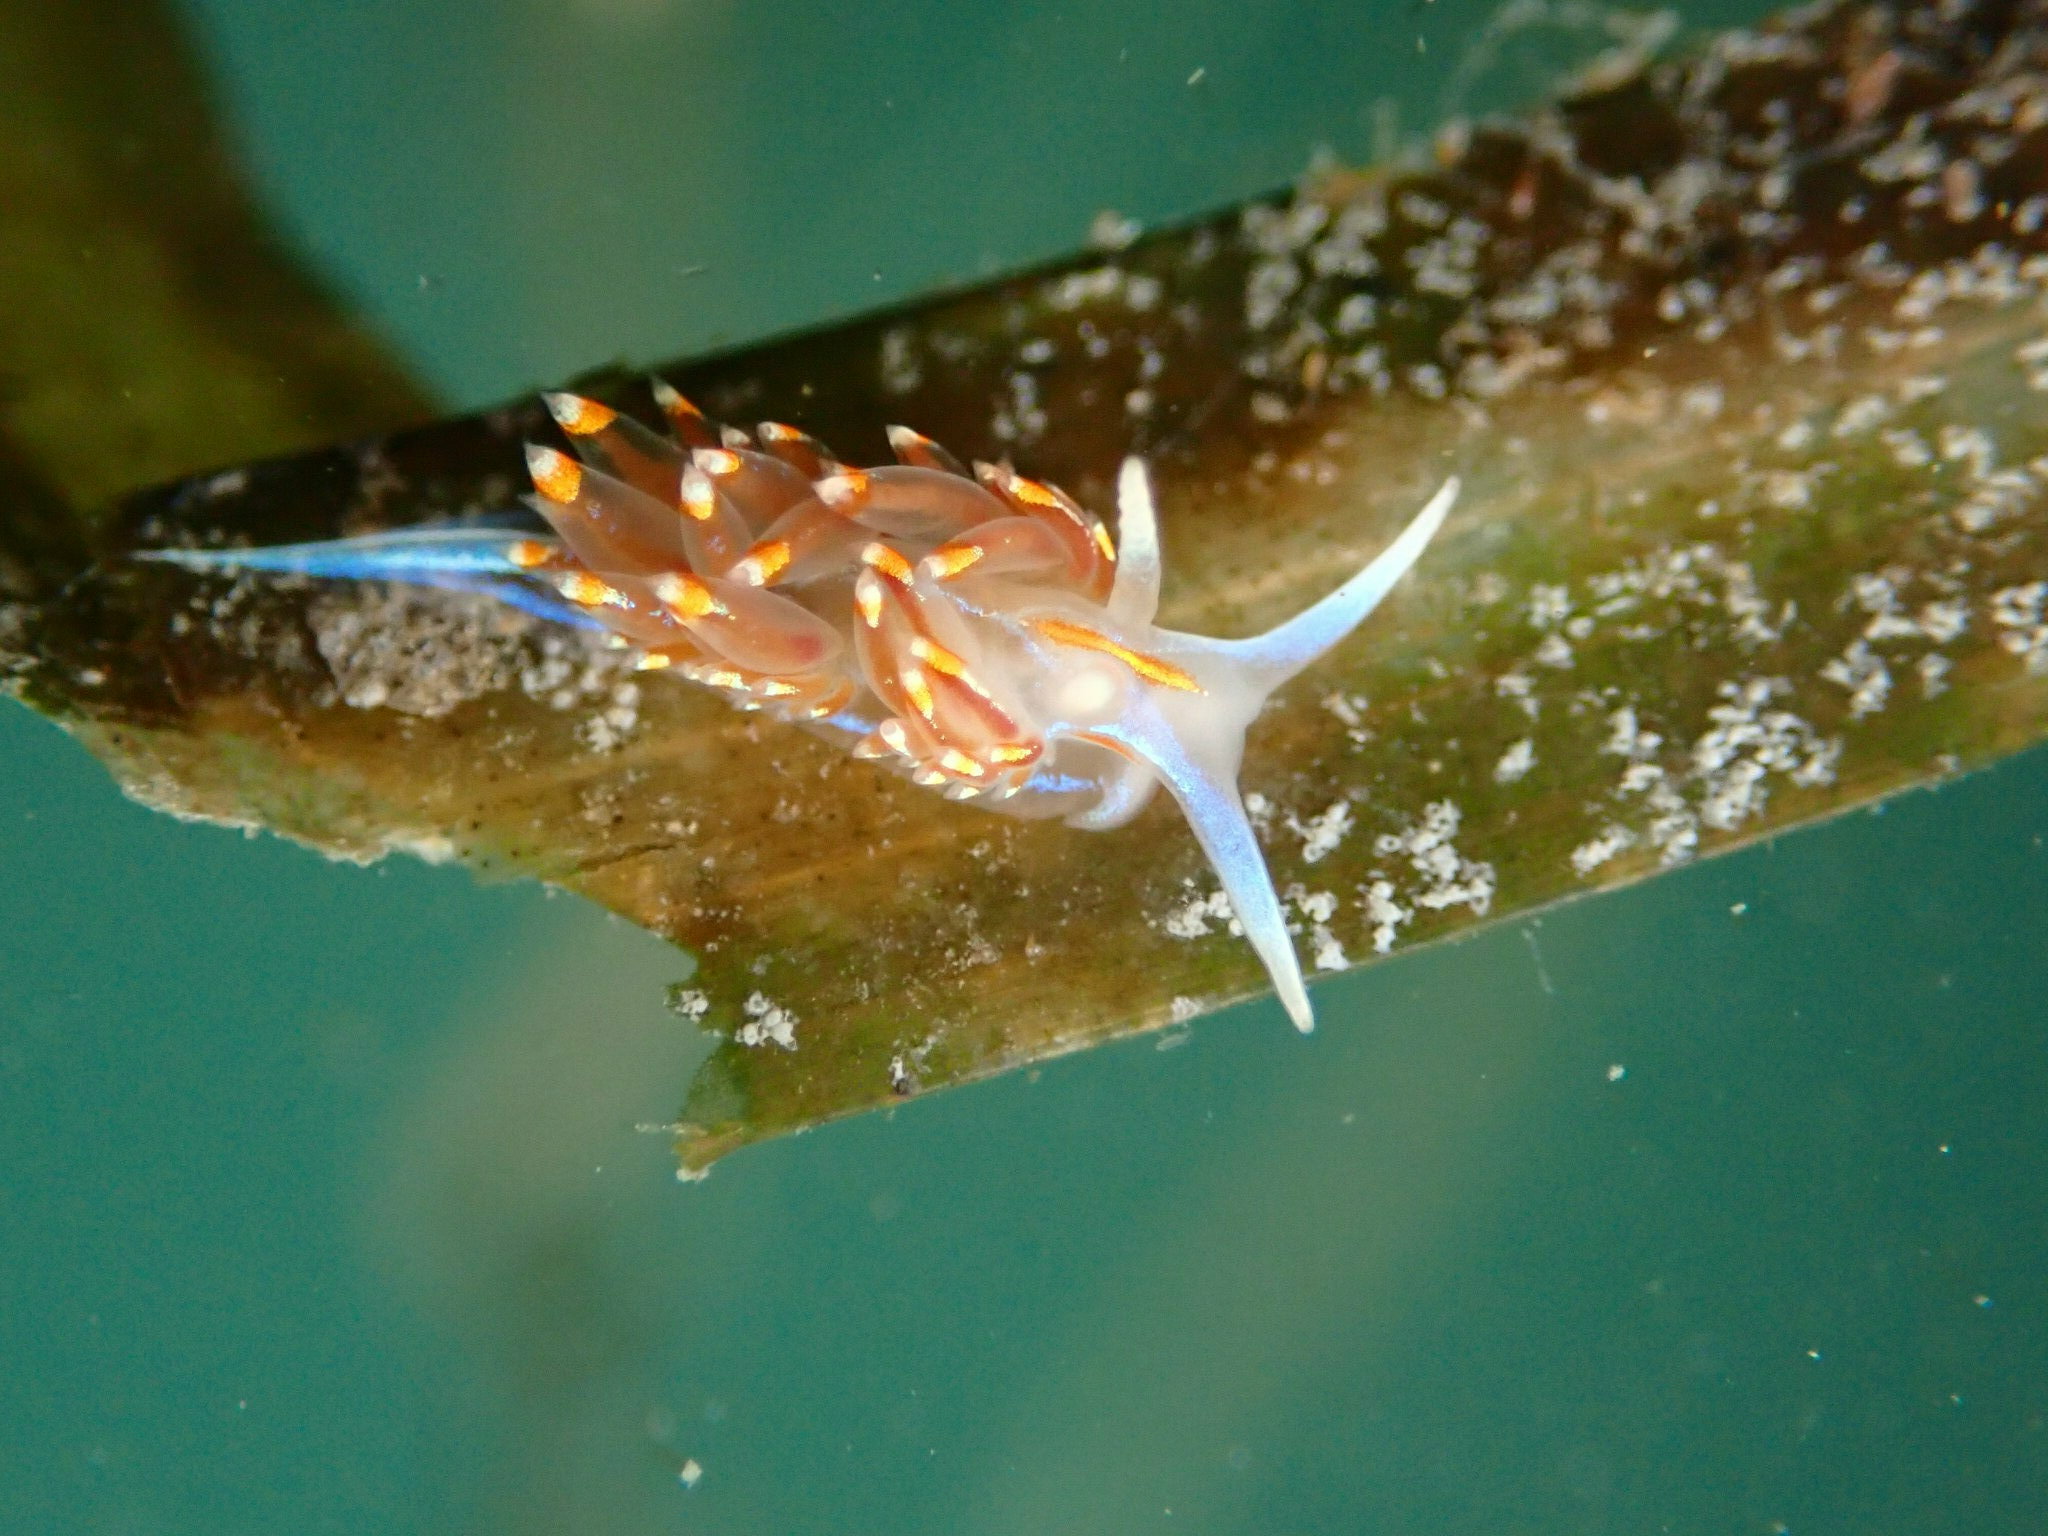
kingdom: Animalia
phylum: Mollusca
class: Gastropoda
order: Nudibranchia
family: Myrrhinidae
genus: Hermissenda
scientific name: Hermissenda opalescens
